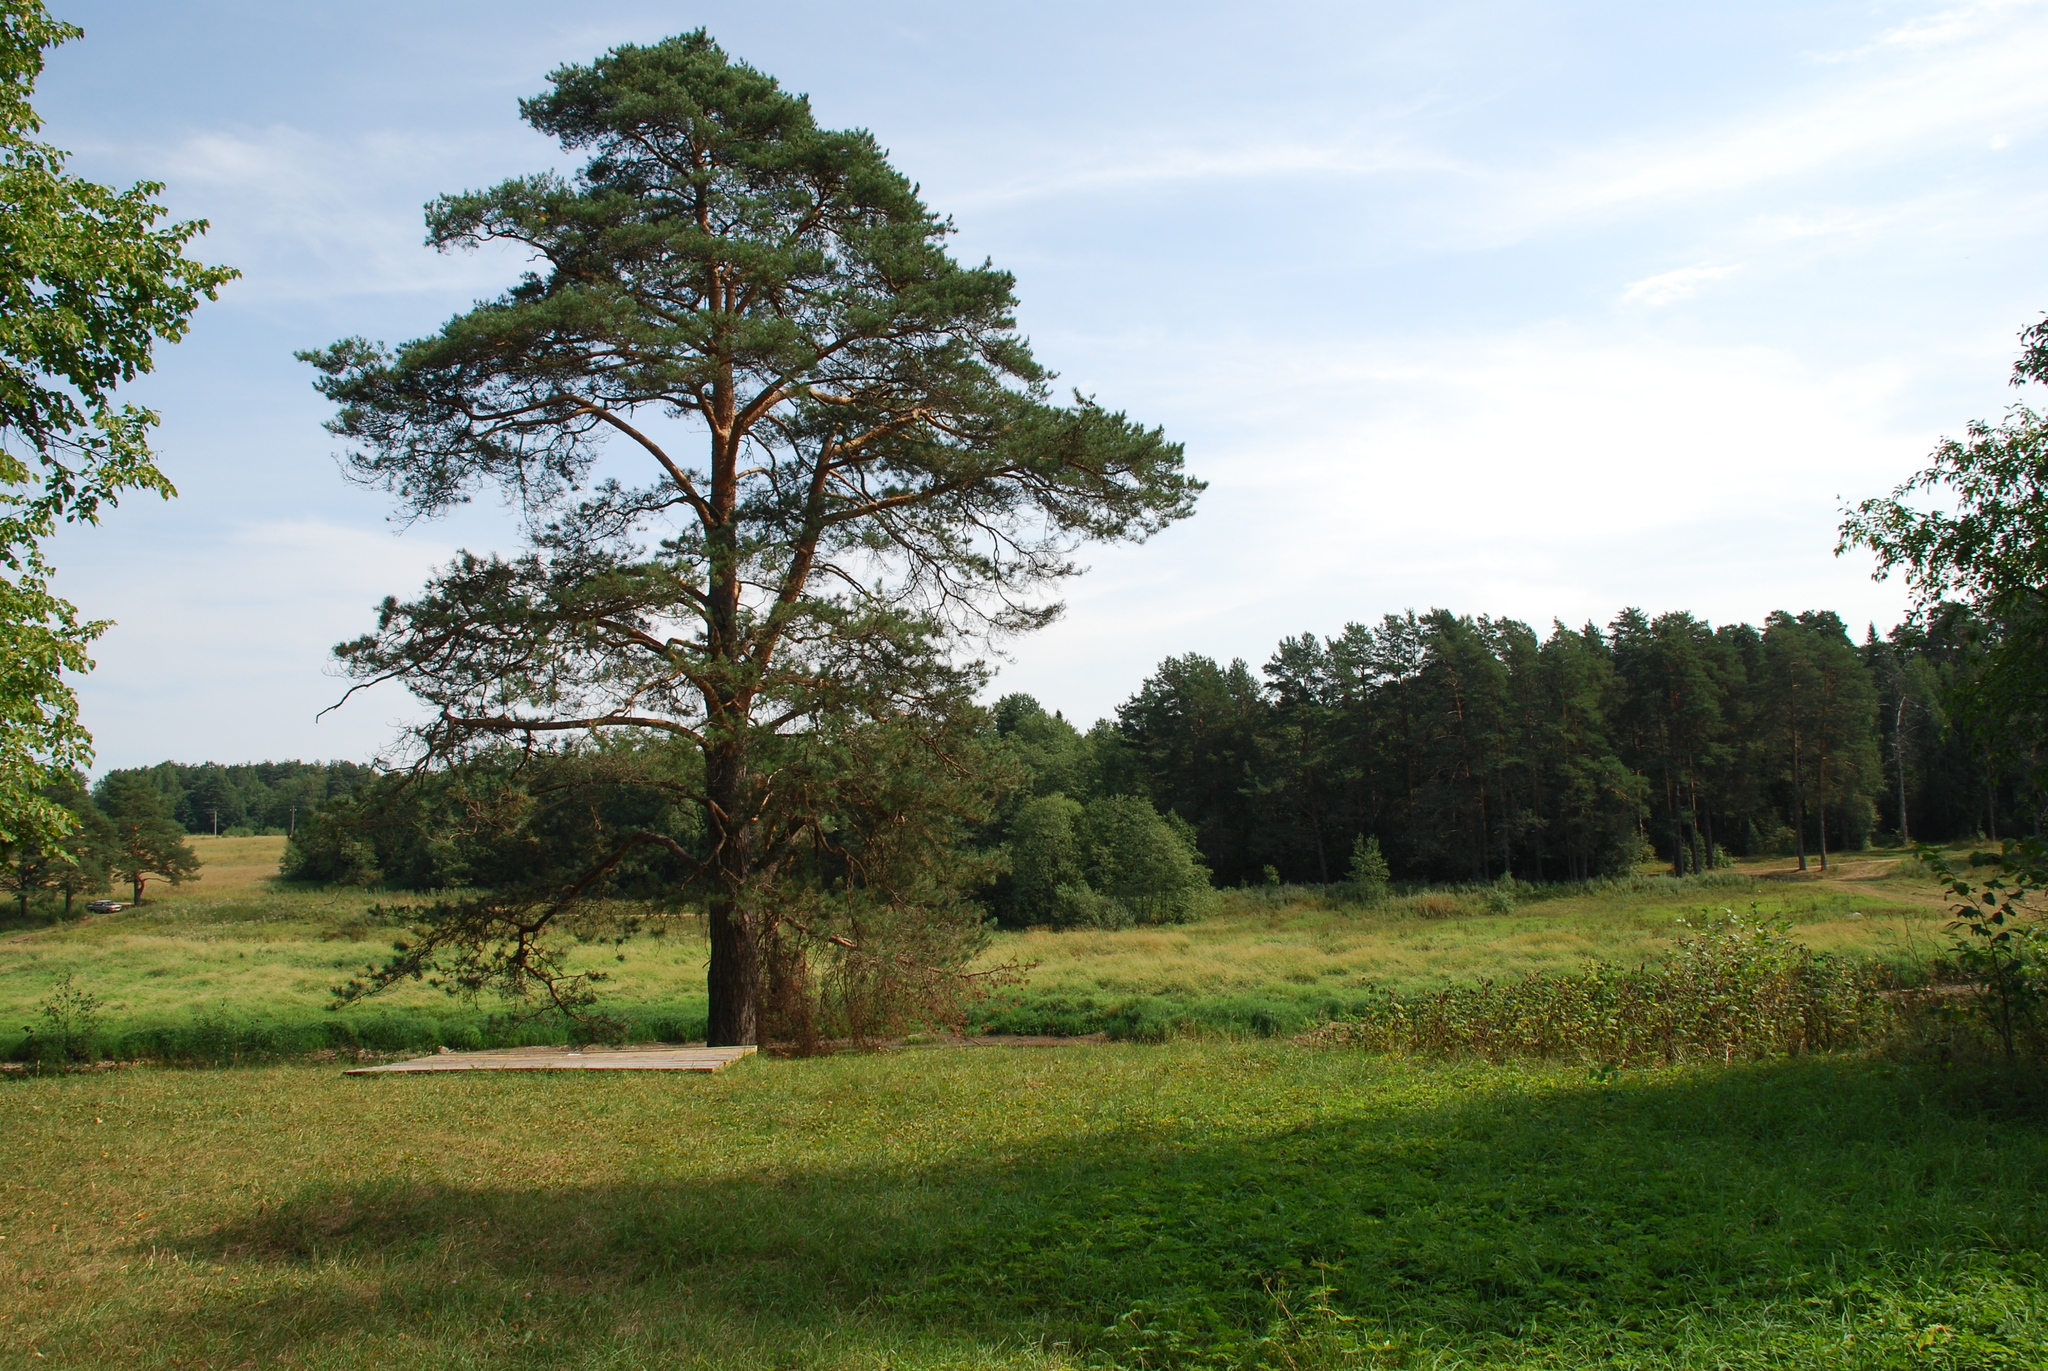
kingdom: Plantae
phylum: Tracheophyta
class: Pinopsida
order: Pinales
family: Pinaceae
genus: Pinus
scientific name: Pinus sylvestris
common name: Scots pine
